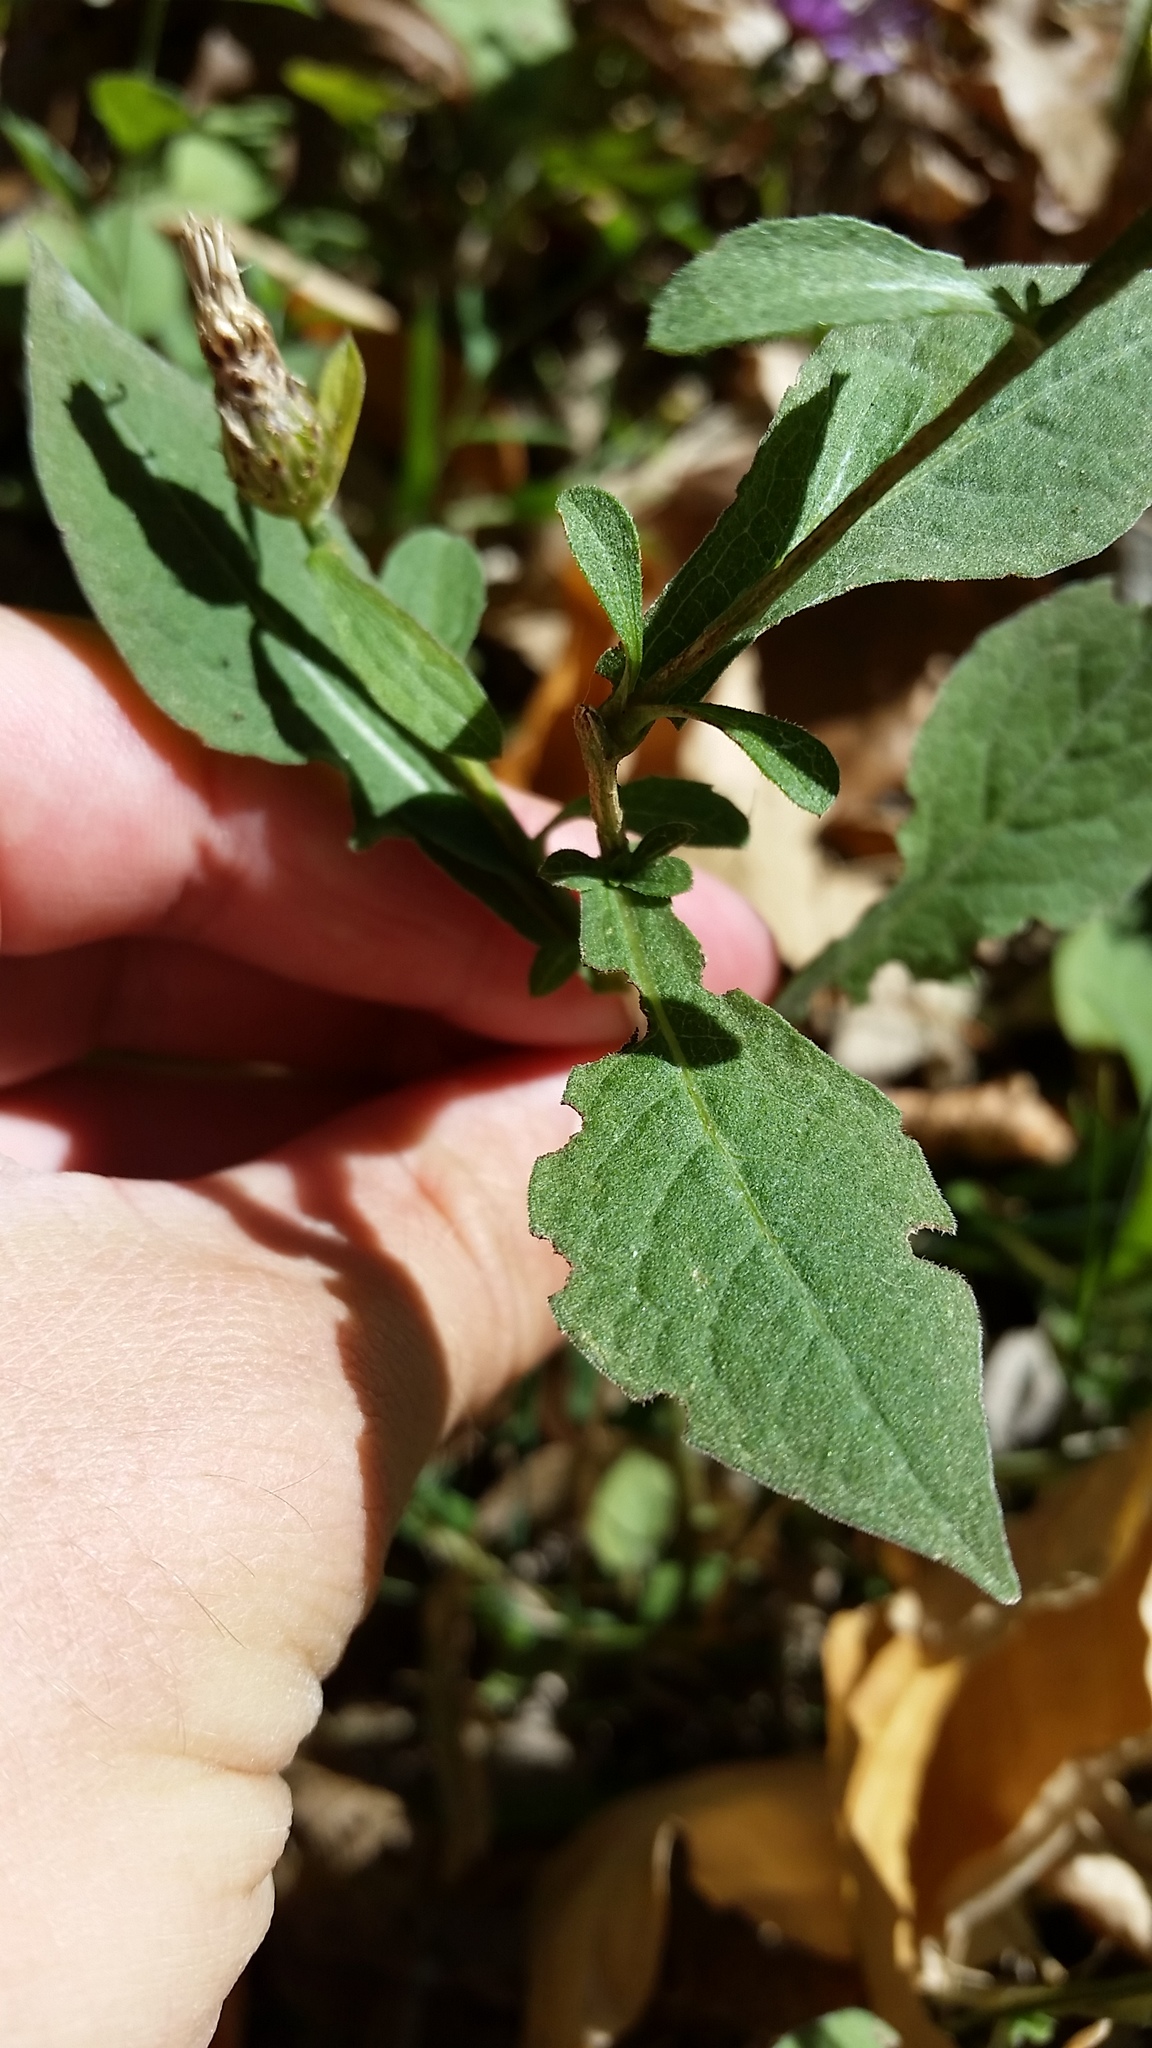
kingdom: Plantae
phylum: Tracheophyta
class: Magnoliopsida
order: Asterales
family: Asteraceae
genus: Centaurea
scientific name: Centaurea nigrescens
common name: Tyrol knapweed
